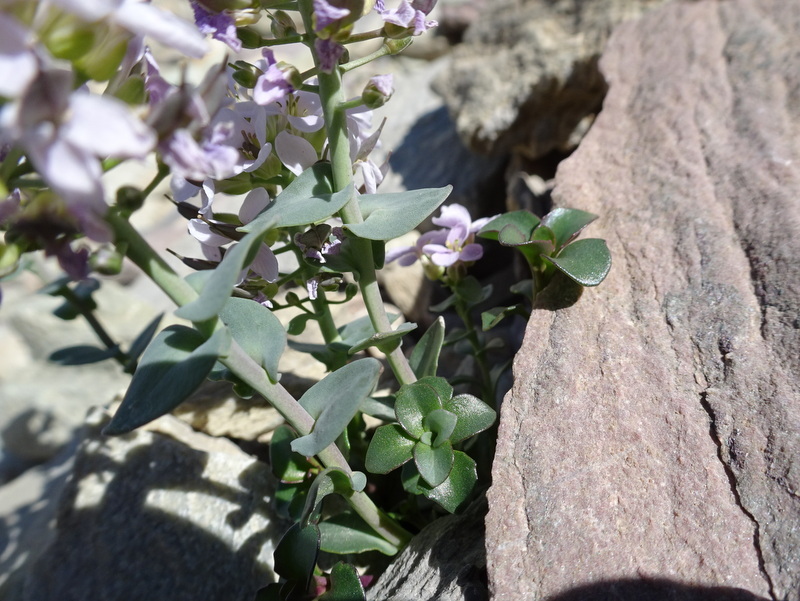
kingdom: Plantae
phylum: Tracheophyta
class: Magnoliopsida
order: Brassicales
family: Brassicaceae
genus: Noccaea
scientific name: Noccaea rotundifolia
